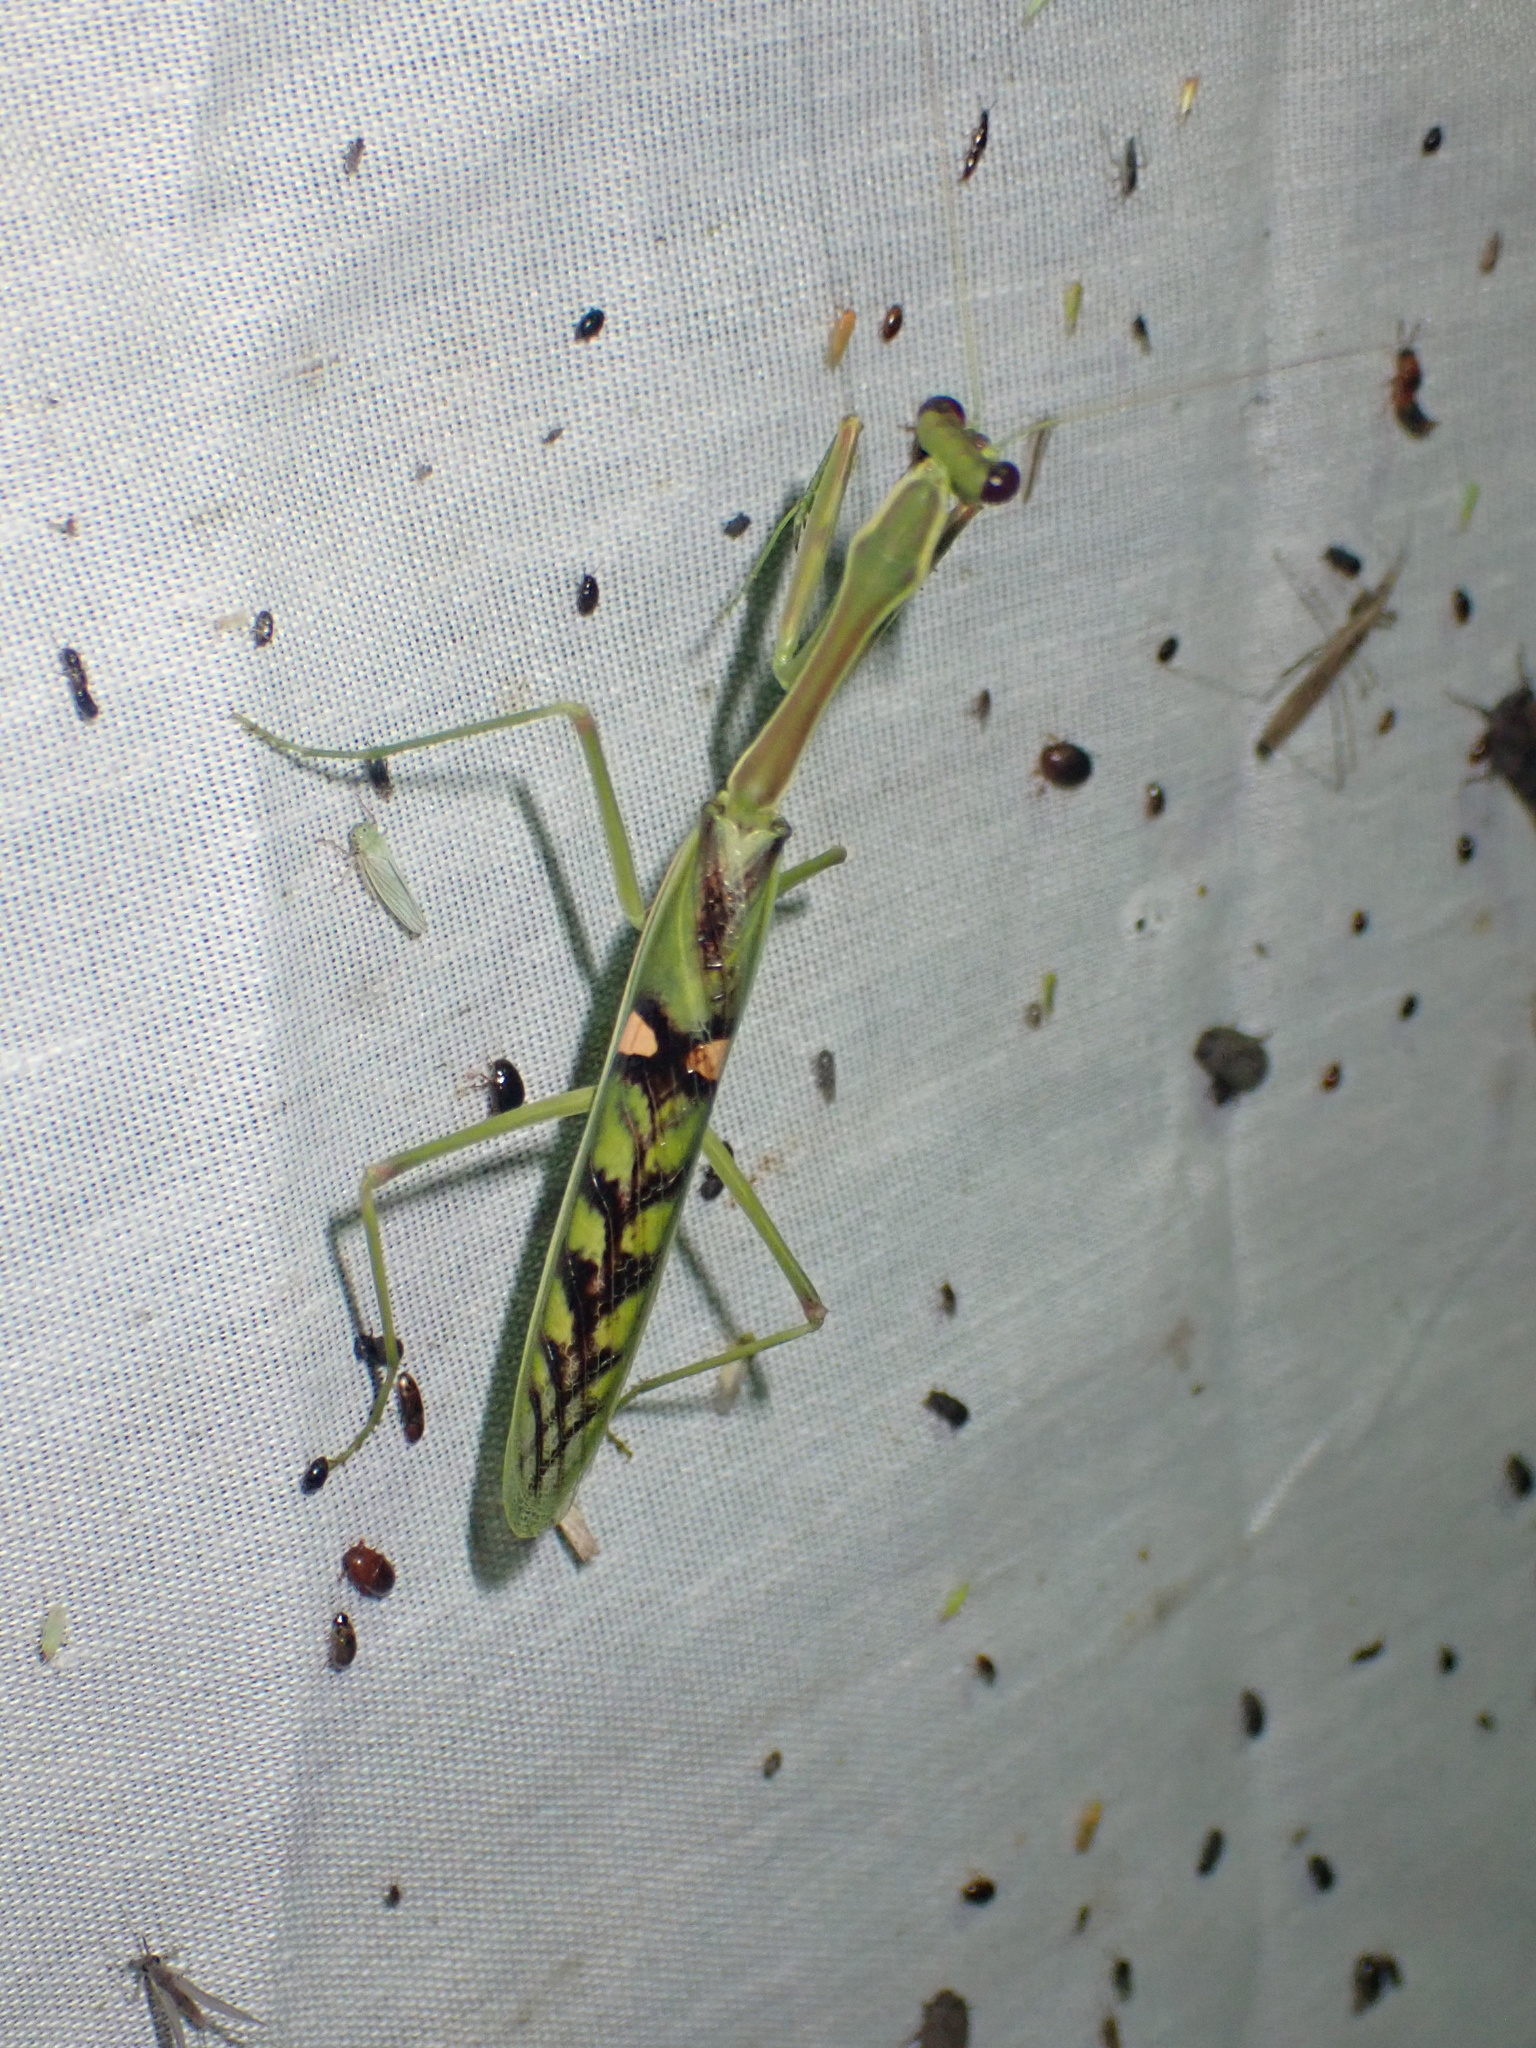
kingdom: Animalia
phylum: Arthropoda
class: Insecta
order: Mantodea
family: Mantidae
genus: Omomantis
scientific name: Omomantis zebrata
